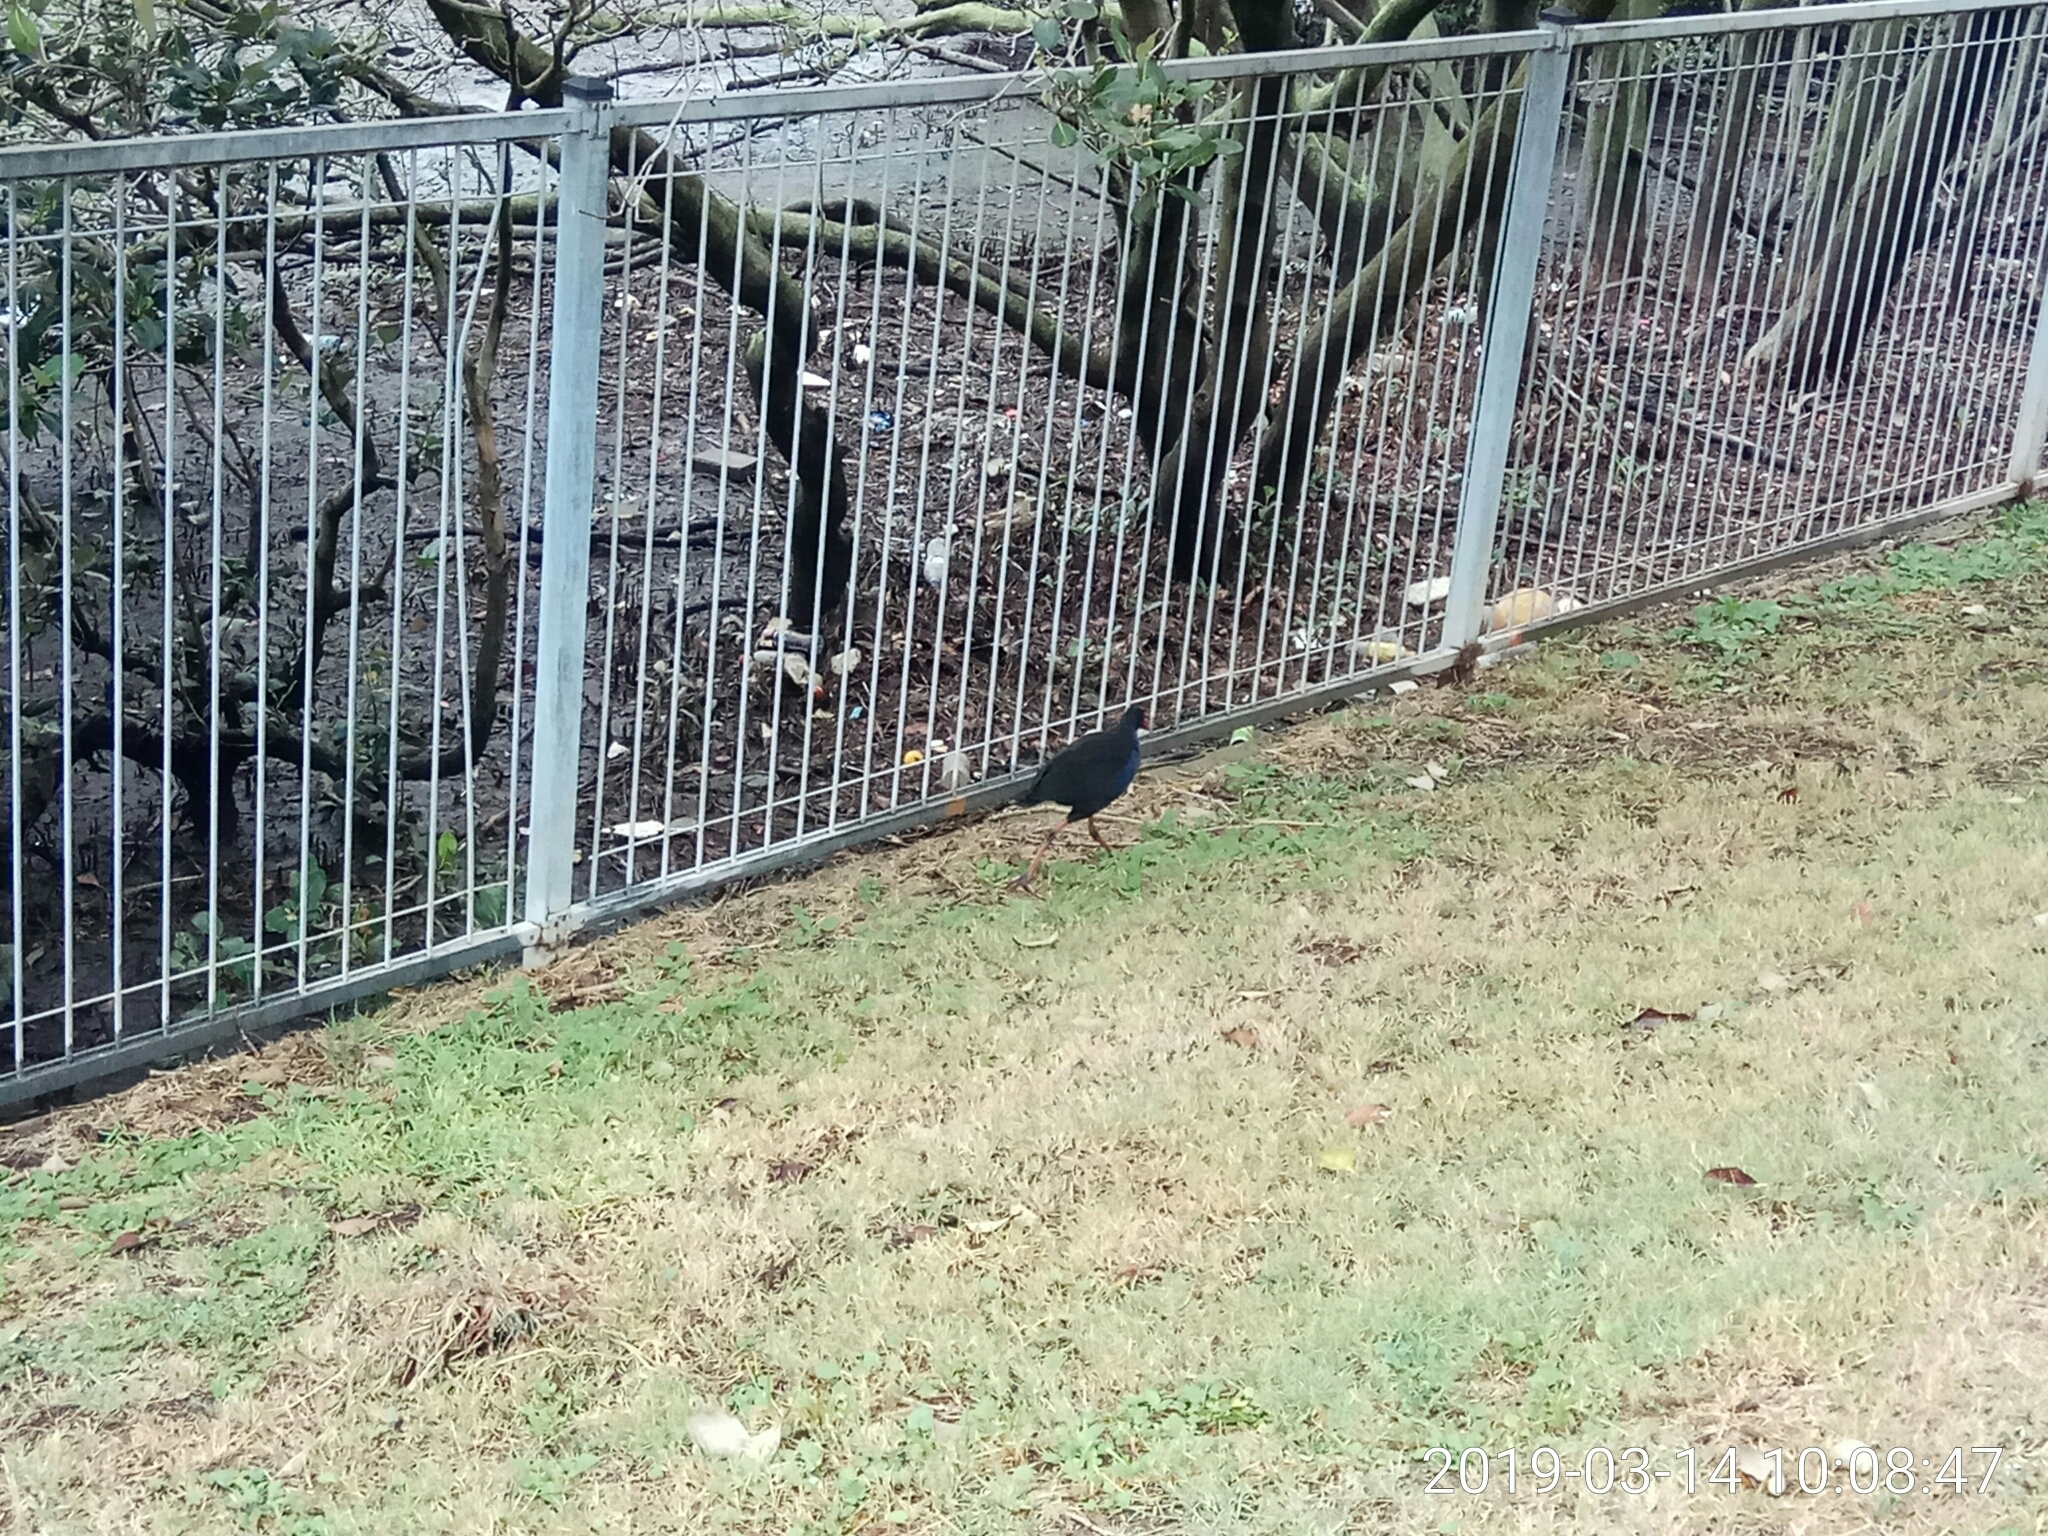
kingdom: Animalia
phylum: Chordata
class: Aves
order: Gruiformes
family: Rallidae
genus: Porphyrio
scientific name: Porphyrio melanotus
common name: Australasian swamphen
